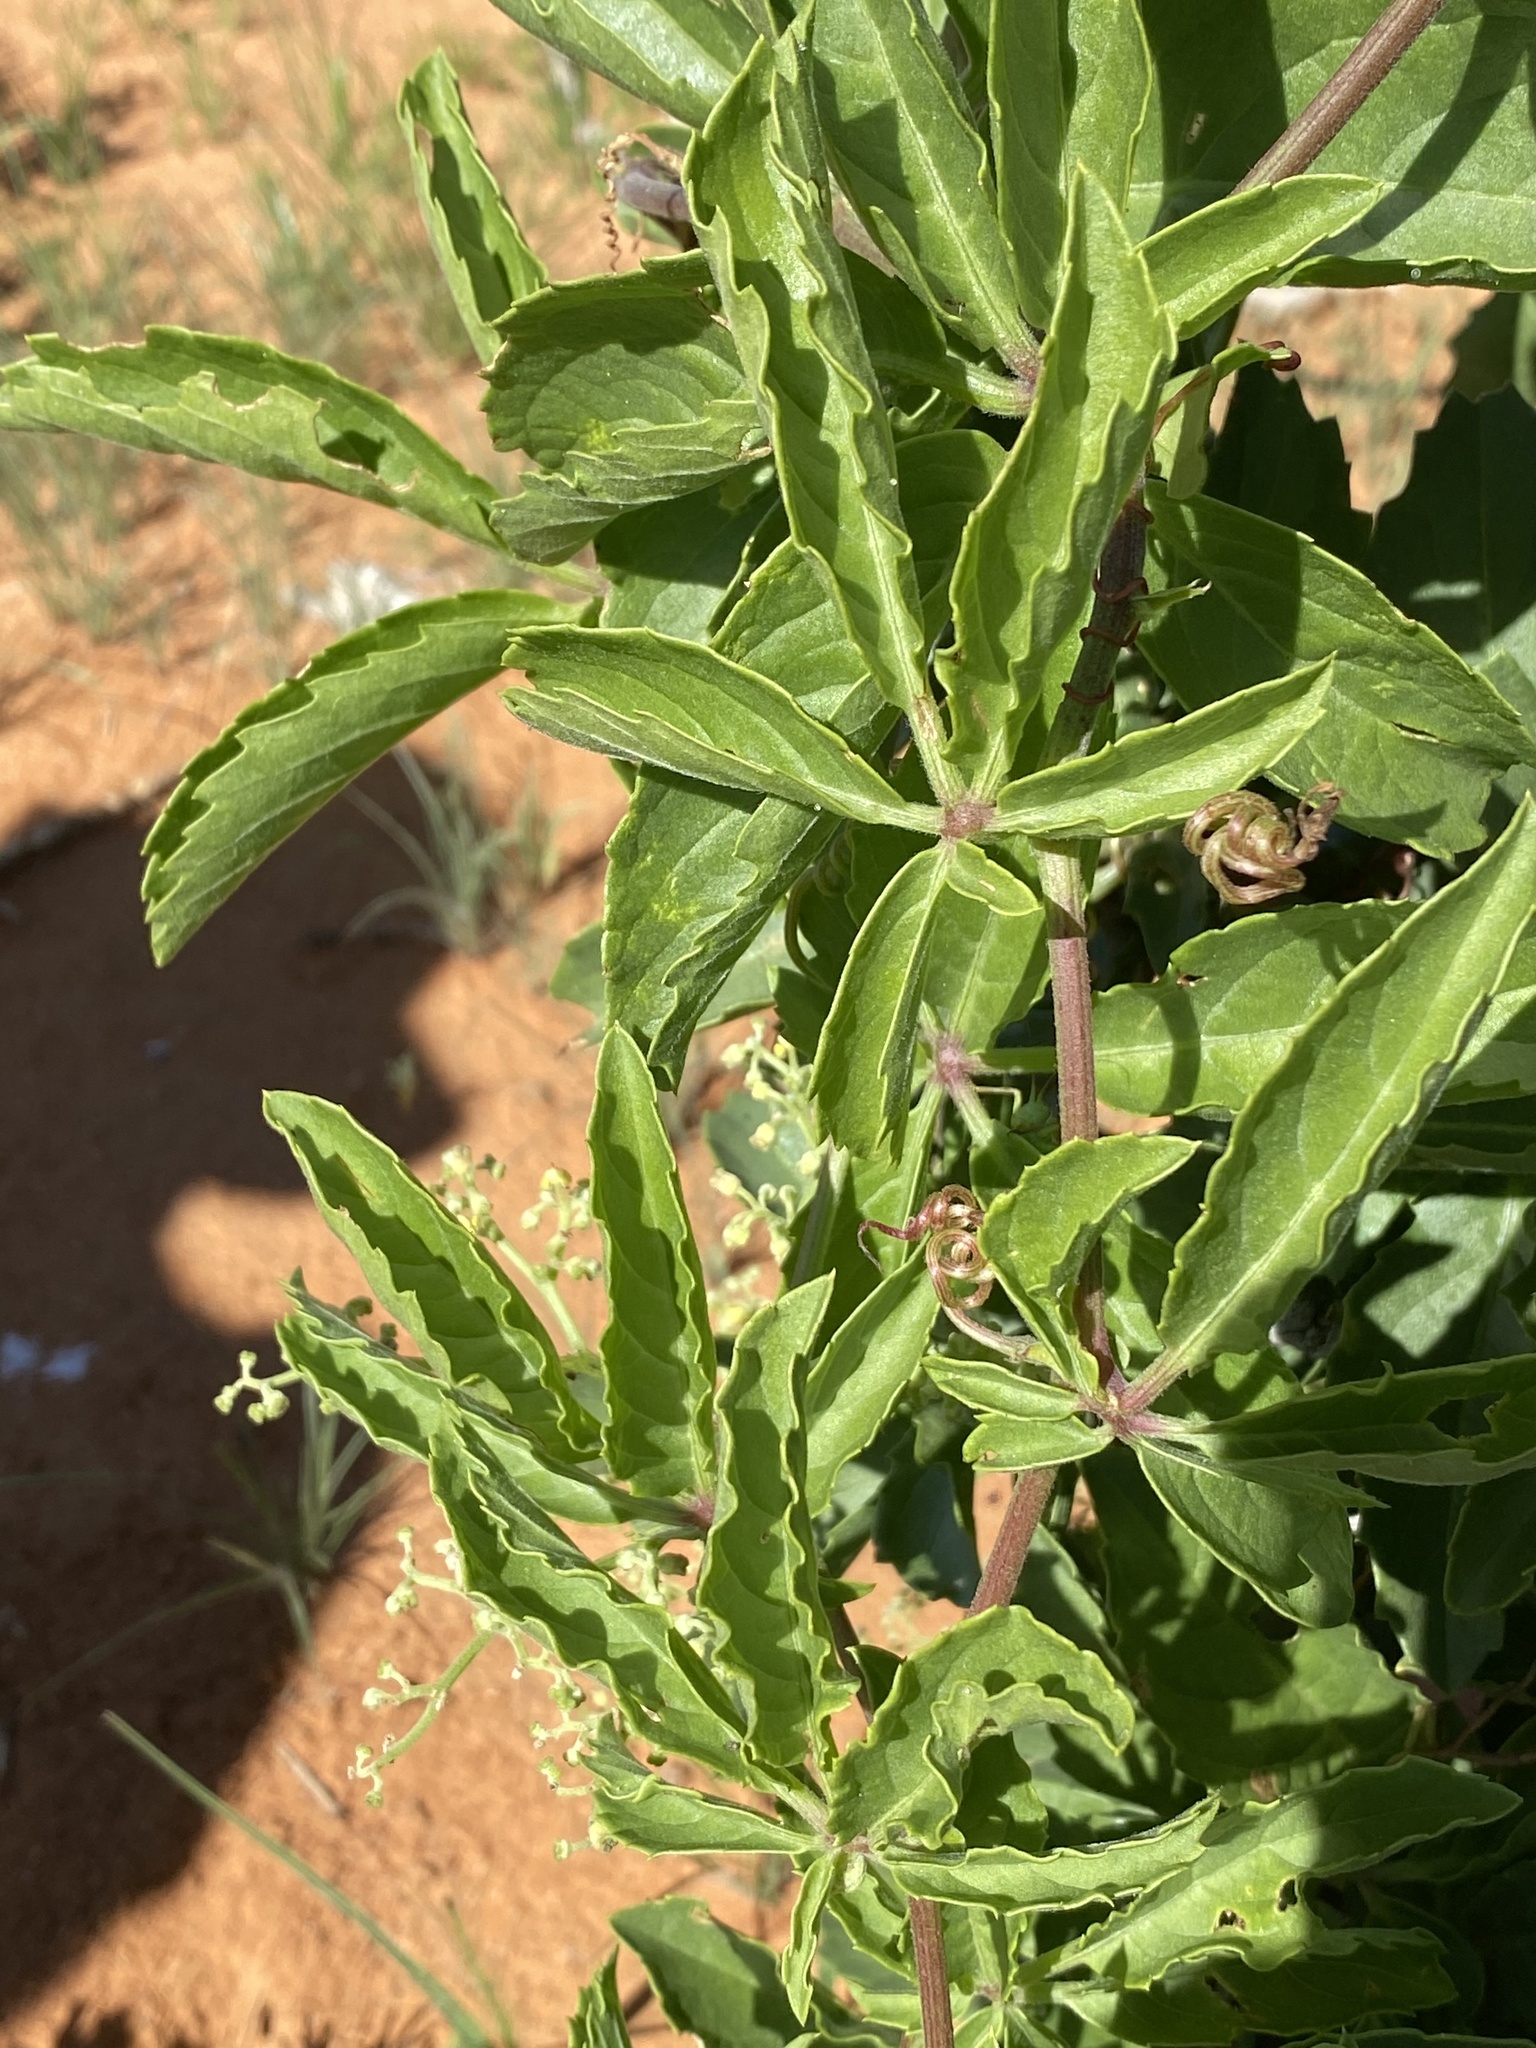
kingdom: Plantae
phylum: Tracheophyta
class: Magnoliopsida
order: Vitales
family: Vitaceae
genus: Cyphostemma
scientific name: Cyphostemma congestum
